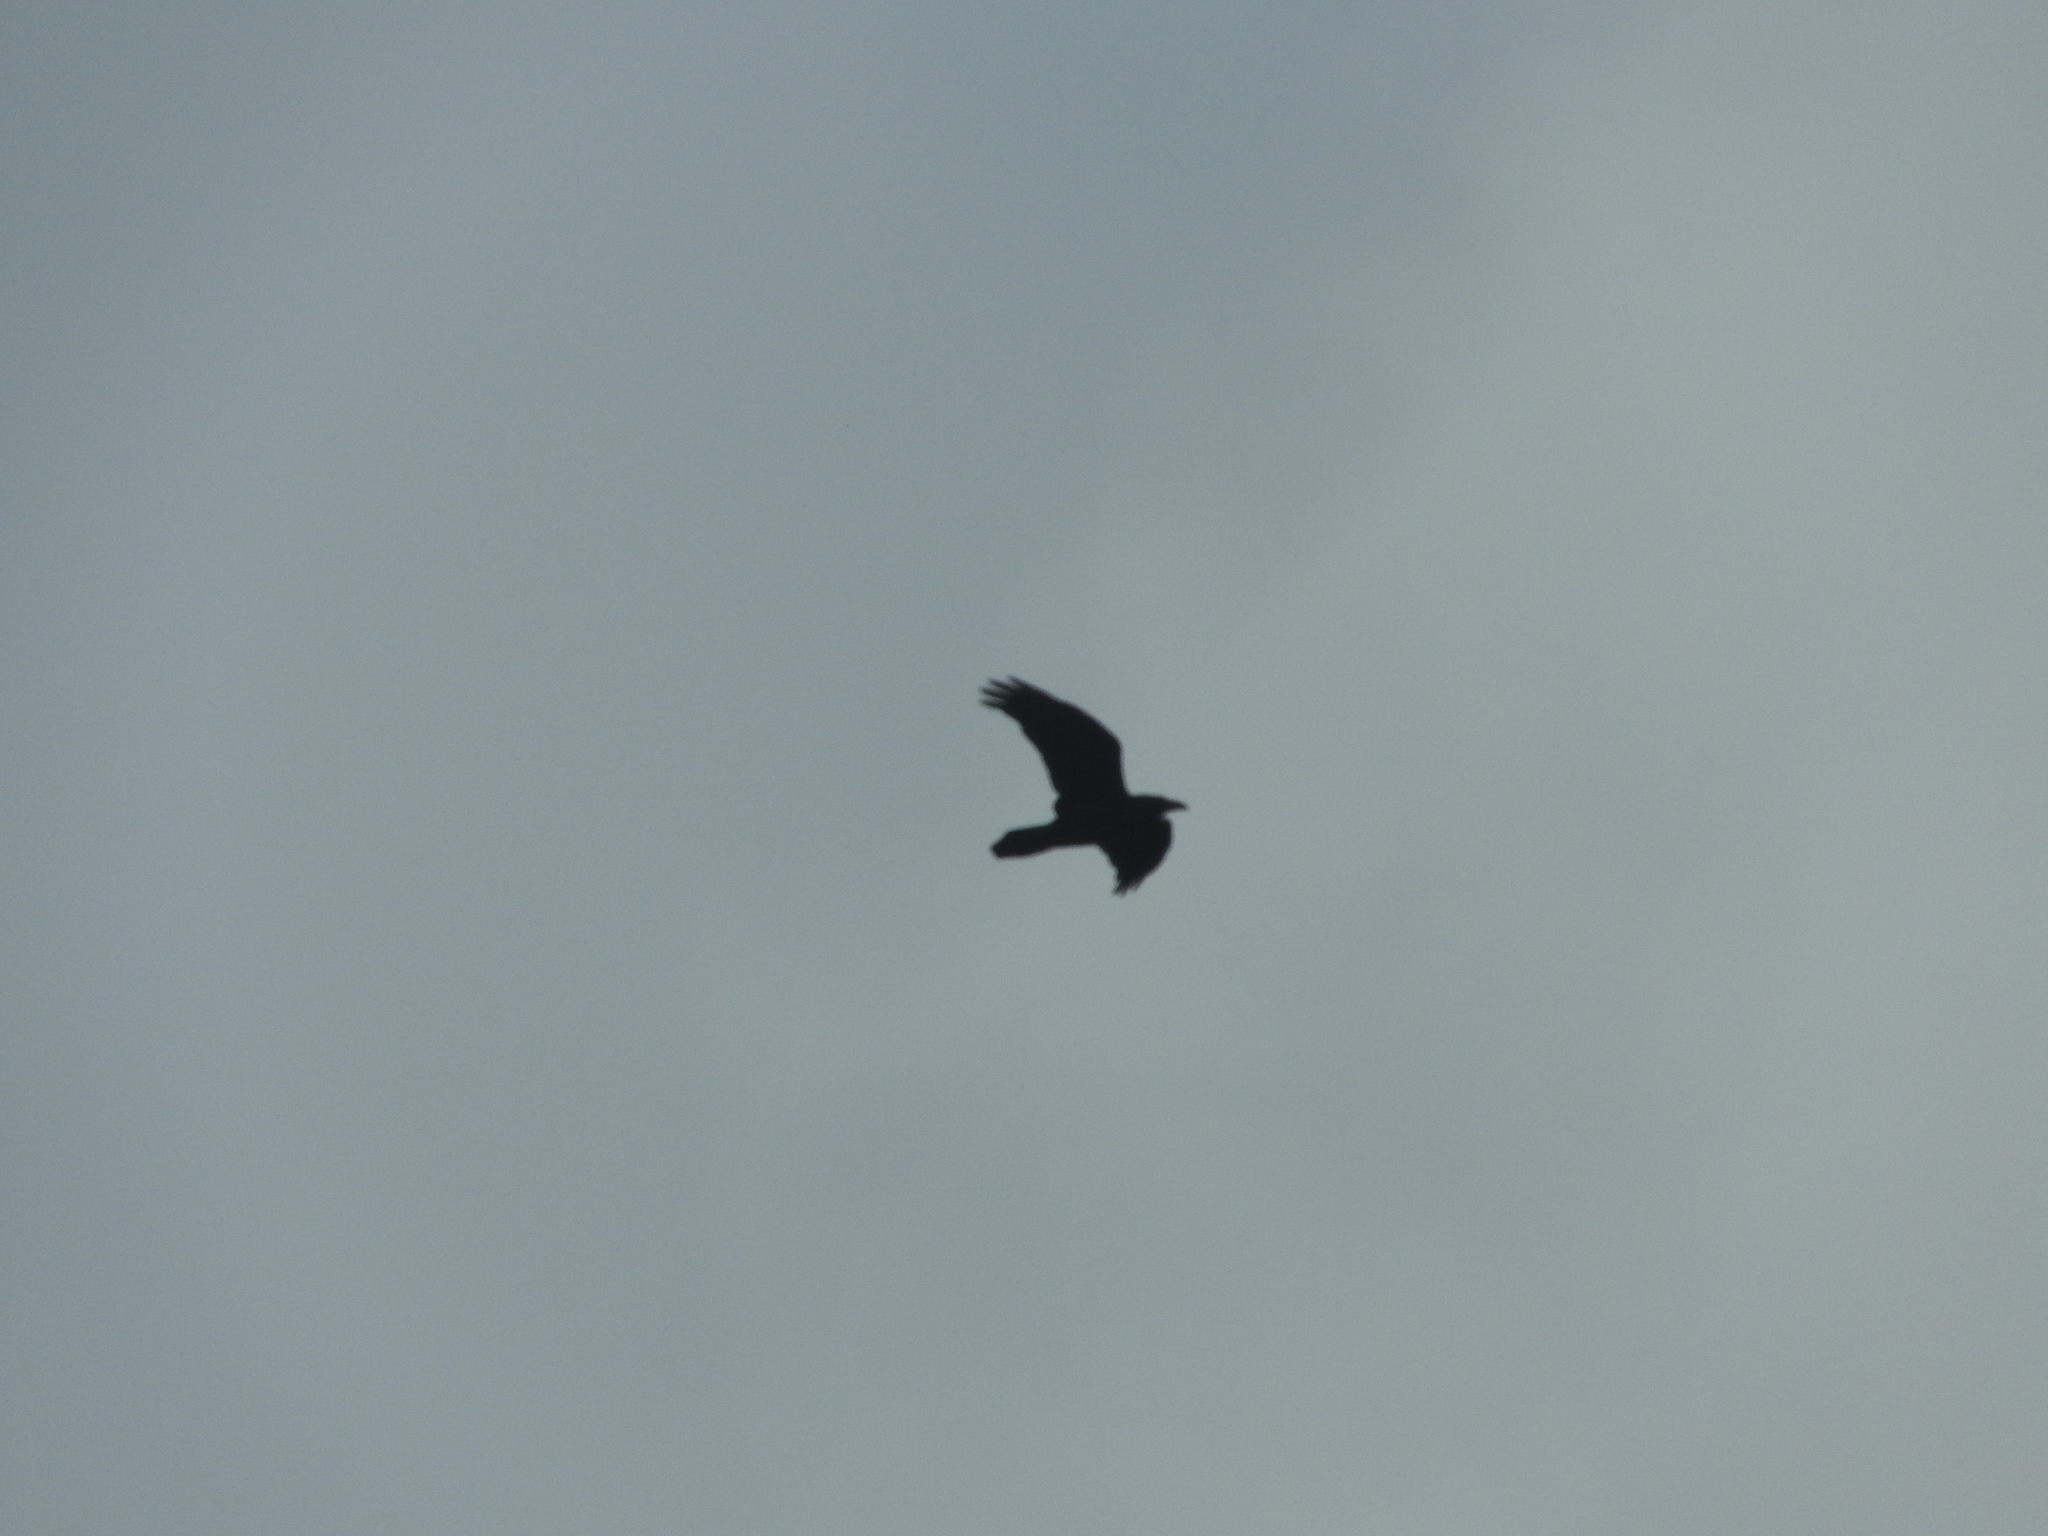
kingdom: Animalia
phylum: Chordata
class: Aves
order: Passeriformes
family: Corvidae
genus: Corvus
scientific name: Corvus corax
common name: Common raven
